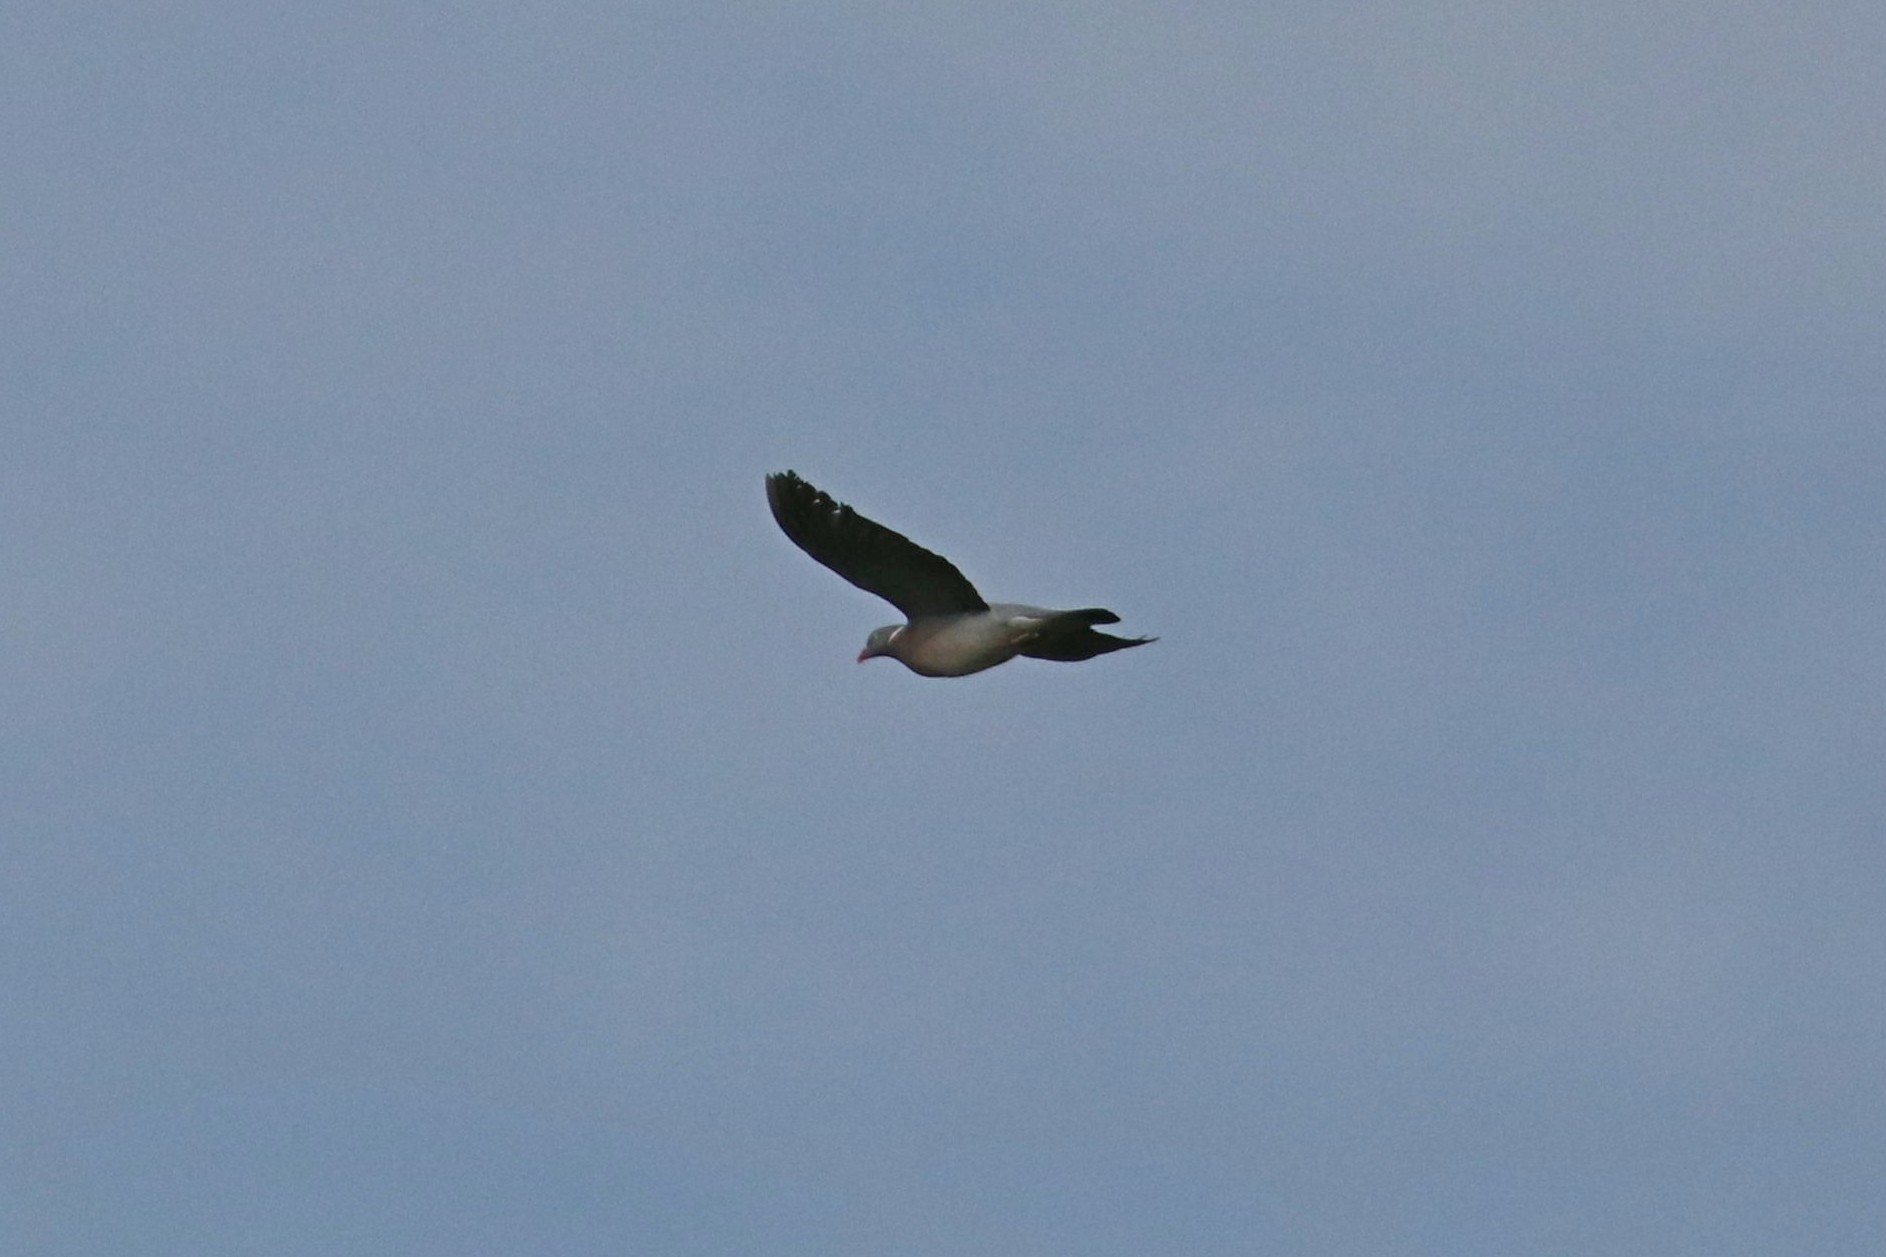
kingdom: Animalia
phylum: Chordata
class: Aves
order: Columbiformes
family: Columbidae
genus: Columba
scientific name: Columba palumbus
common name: Common wood pigeon
